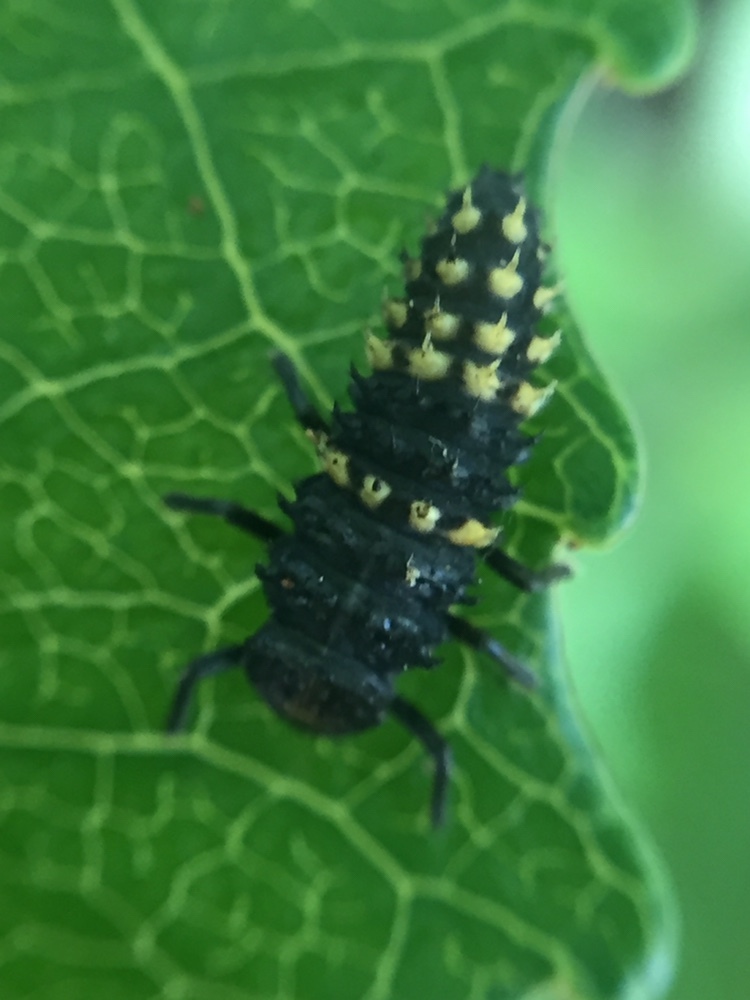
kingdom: Animalia
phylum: Arthropoda
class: Insecta
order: Coleoptera
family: Coccinellidae
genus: Harmonia
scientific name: Harmonia
